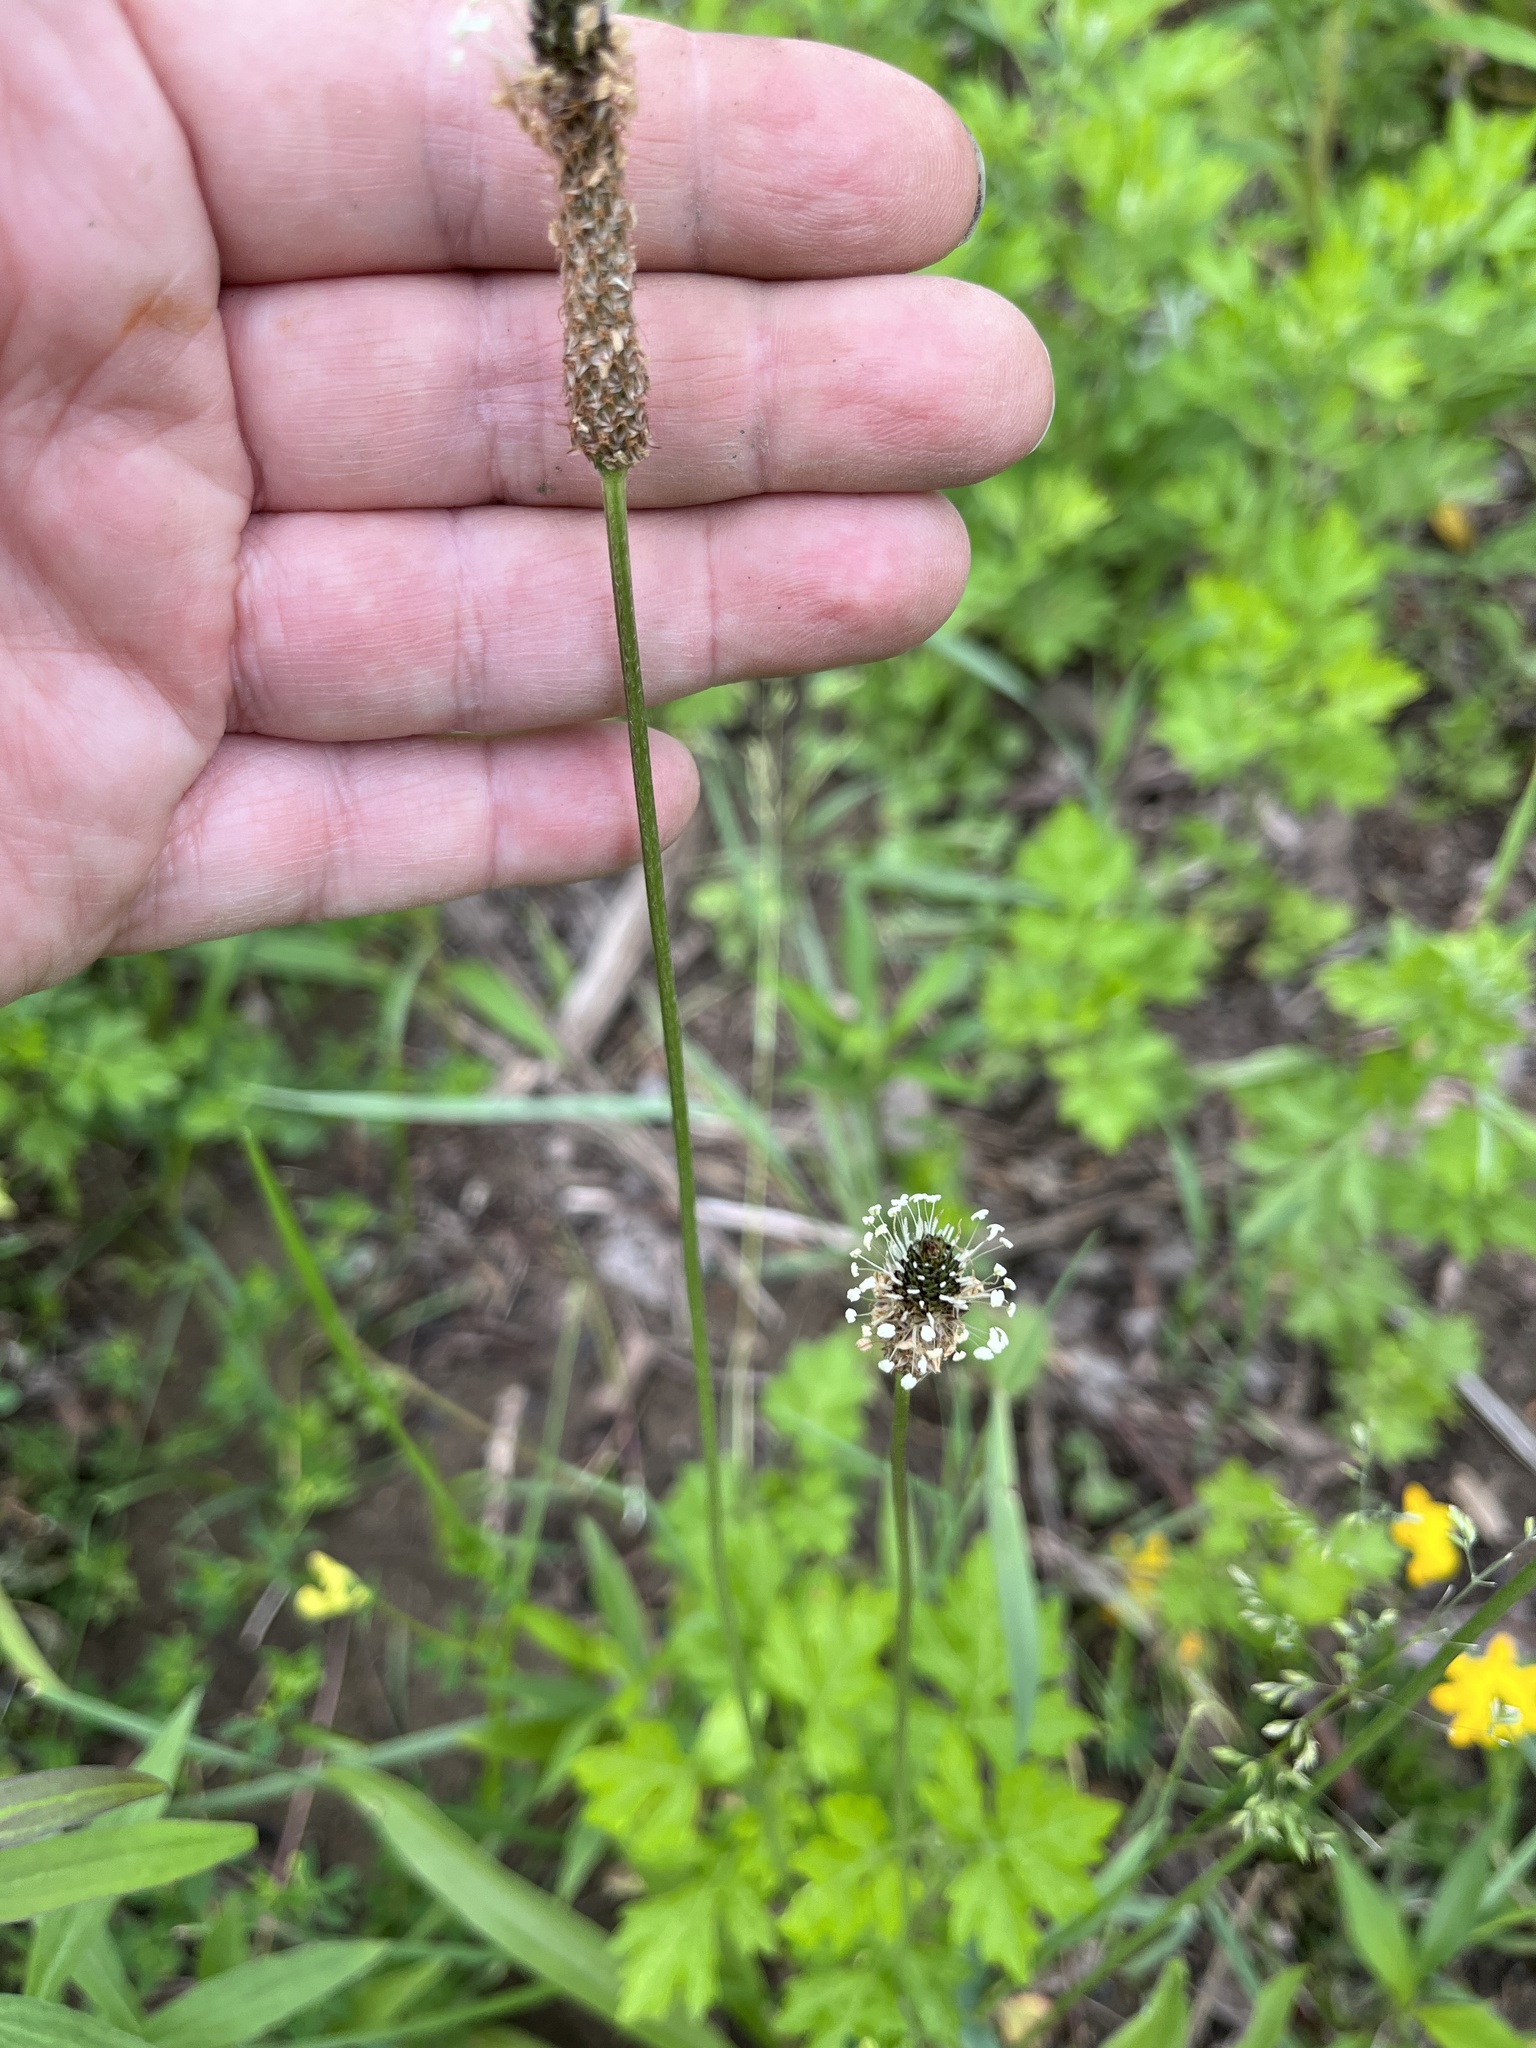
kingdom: Plantae
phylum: Tracheophyta
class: Magnoliopsida
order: Lamiales
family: Plantaginaceae
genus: Plantago
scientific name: Plantago lanceolata
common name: Ribwort plantain
